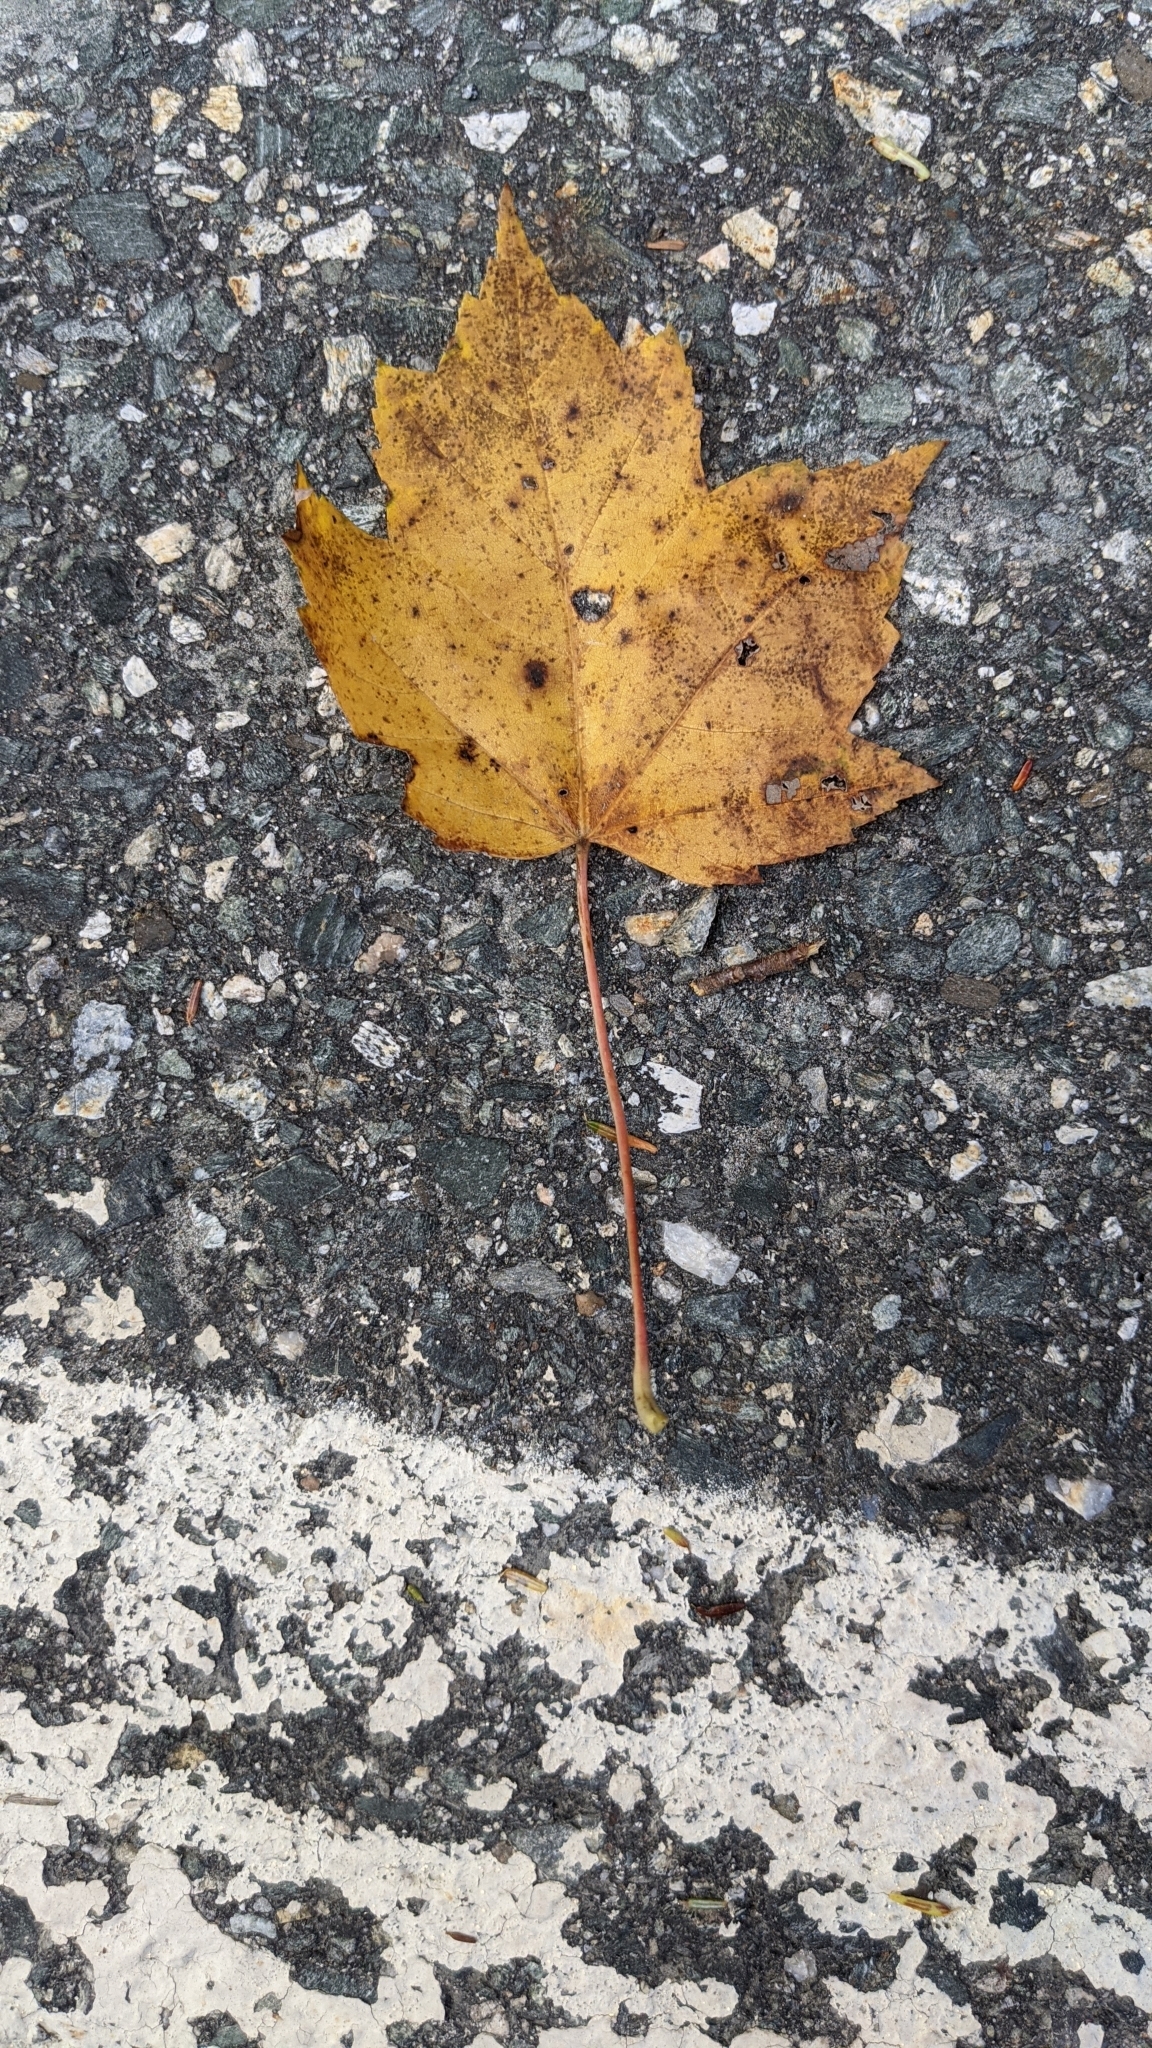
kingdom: Plantae
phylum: Tracheophyta
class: Magnoliopsida
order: Sapindales
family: Sapindaceae
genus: Acer
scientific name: Acer rubrum
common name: Red maple
